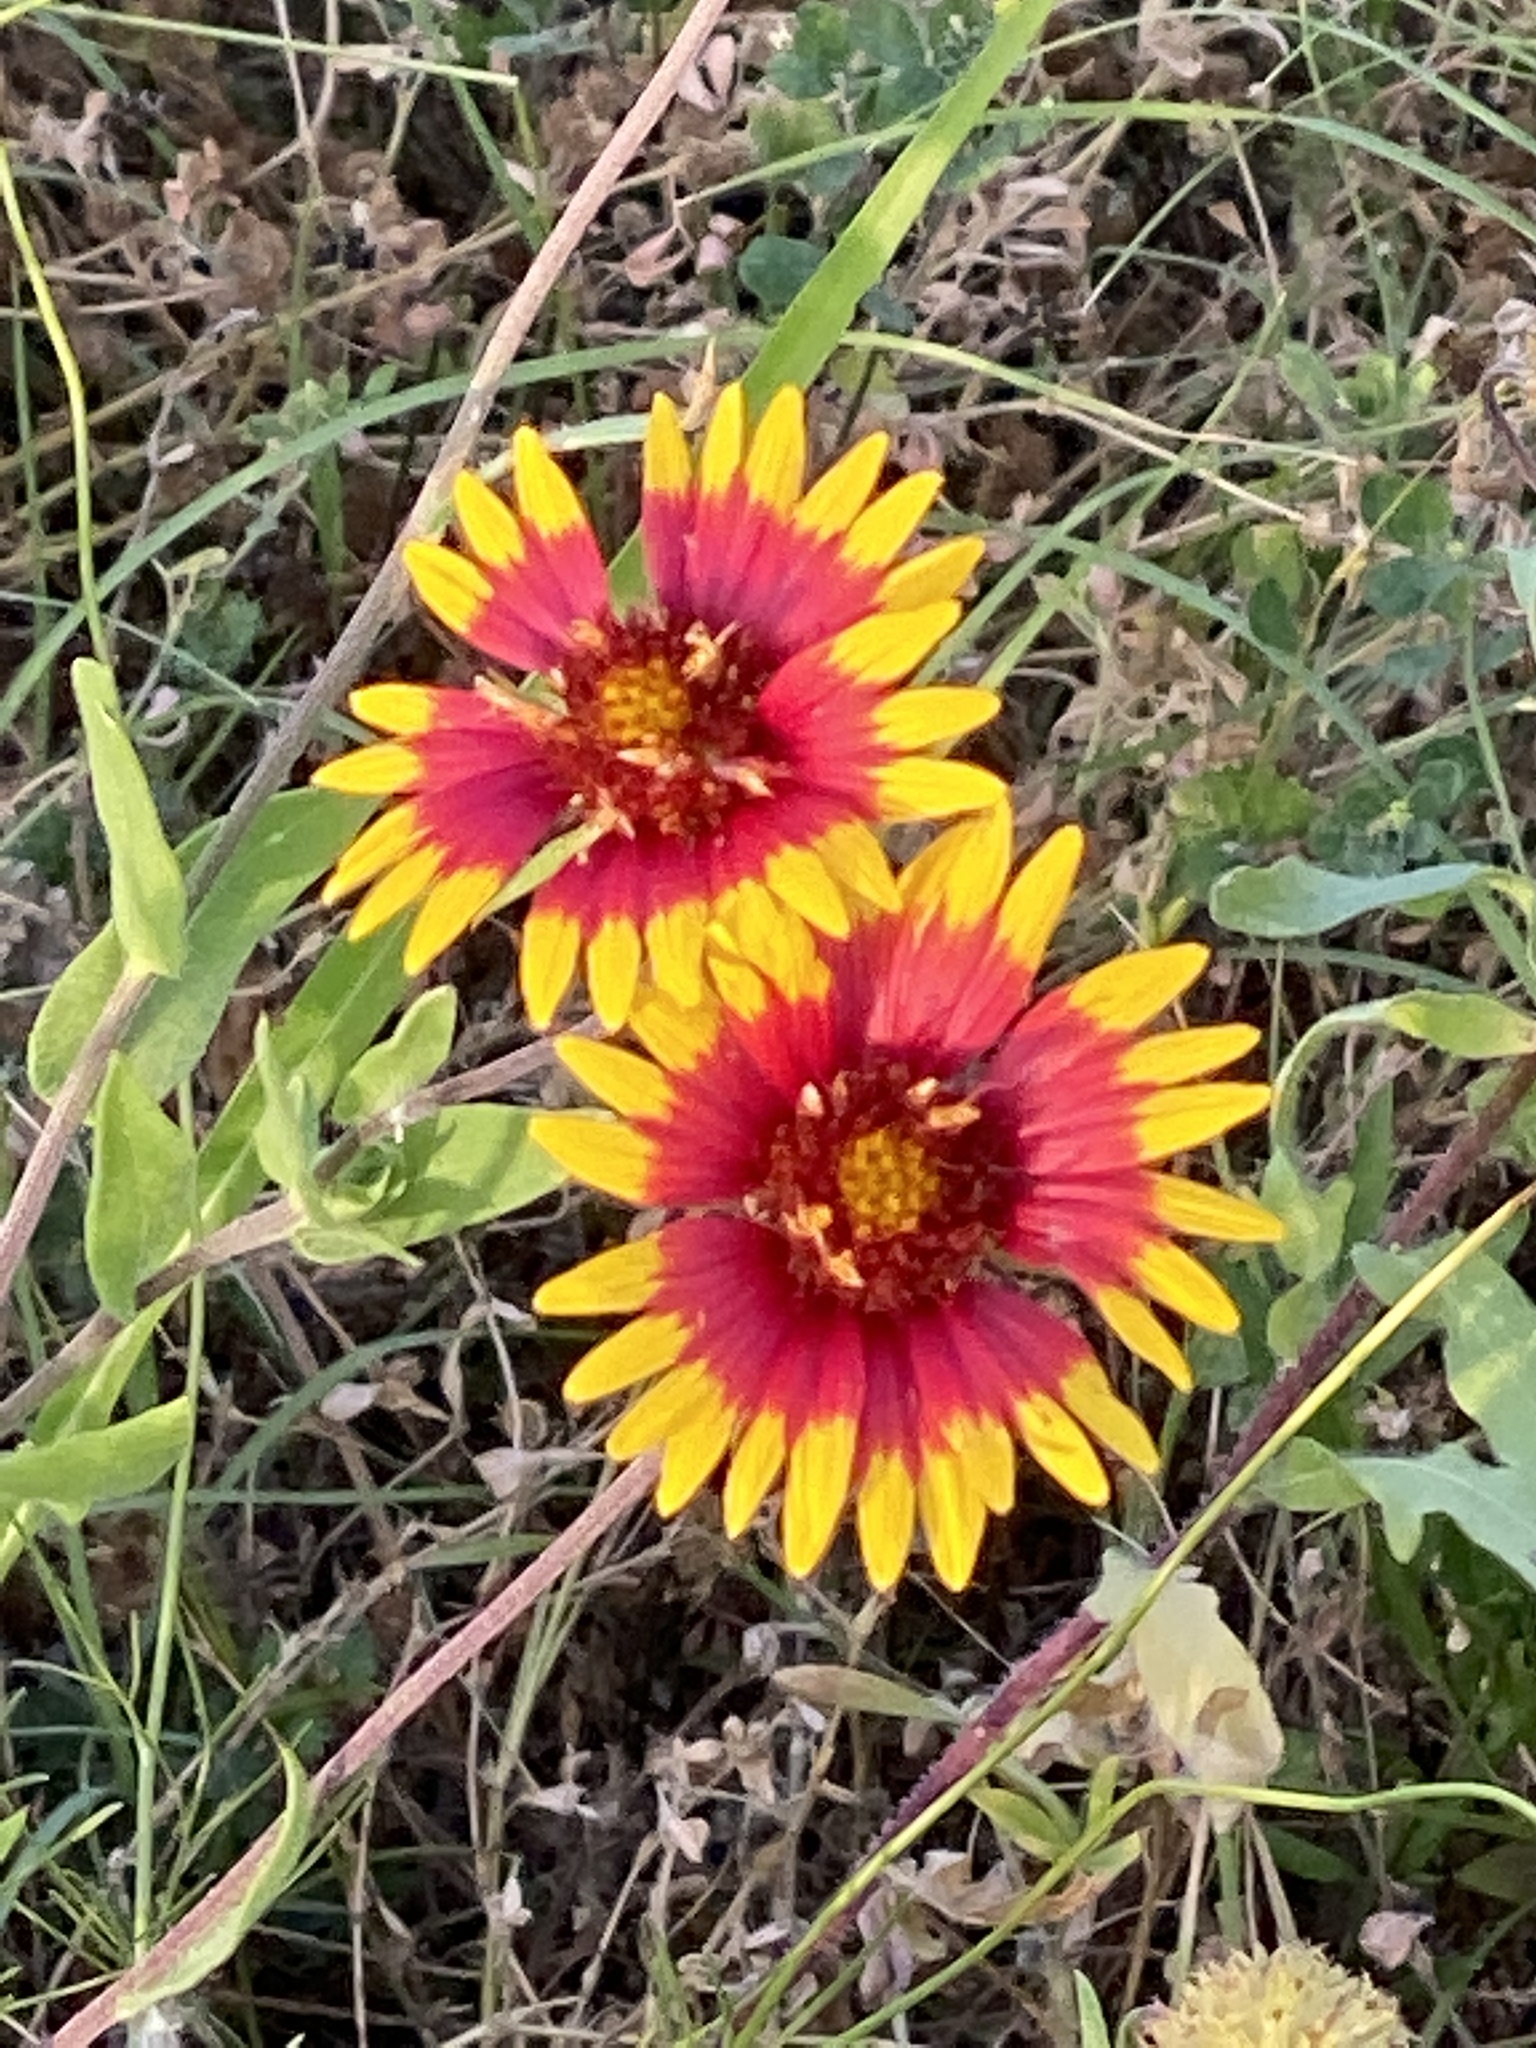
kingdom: Plantae
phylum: Tracheophyta
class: Magnoliopsida
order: Asterales
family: Asteraceae
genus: Gaillardia
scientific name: Gaillardia pulchella
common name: Firewheel
